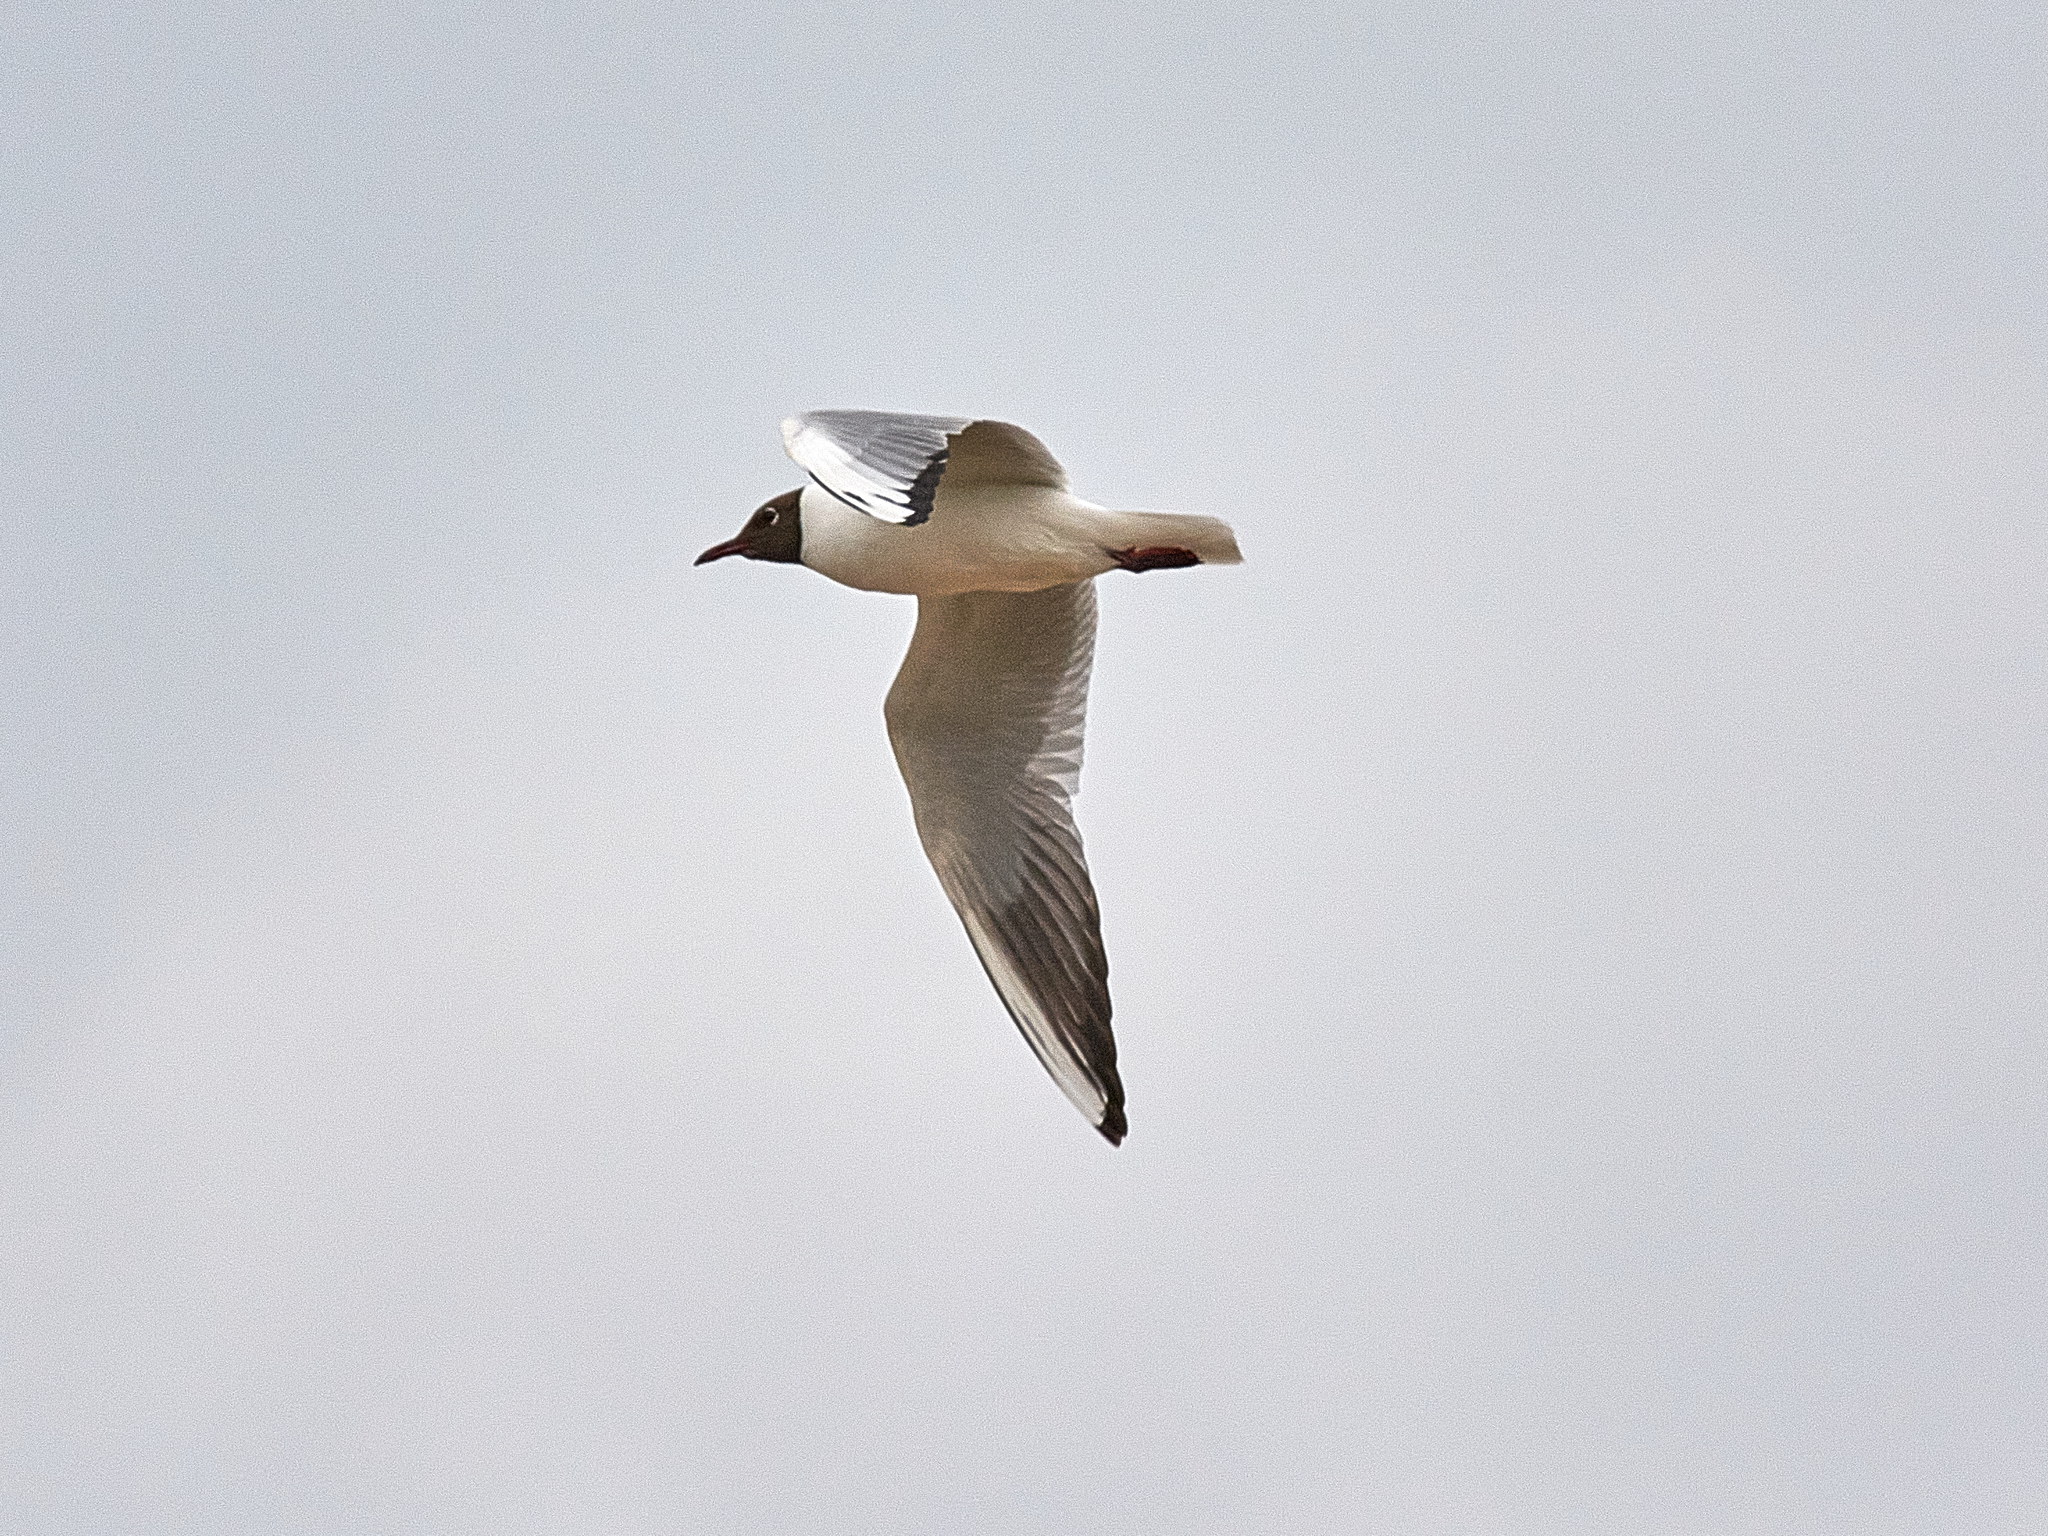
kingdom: Animalia
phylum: Chordata
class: Aves
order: Charadriiformes
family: Laridae
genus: Chroicocephalus
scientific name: Chroicocephalus ridibundus
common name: Black-headed gull
